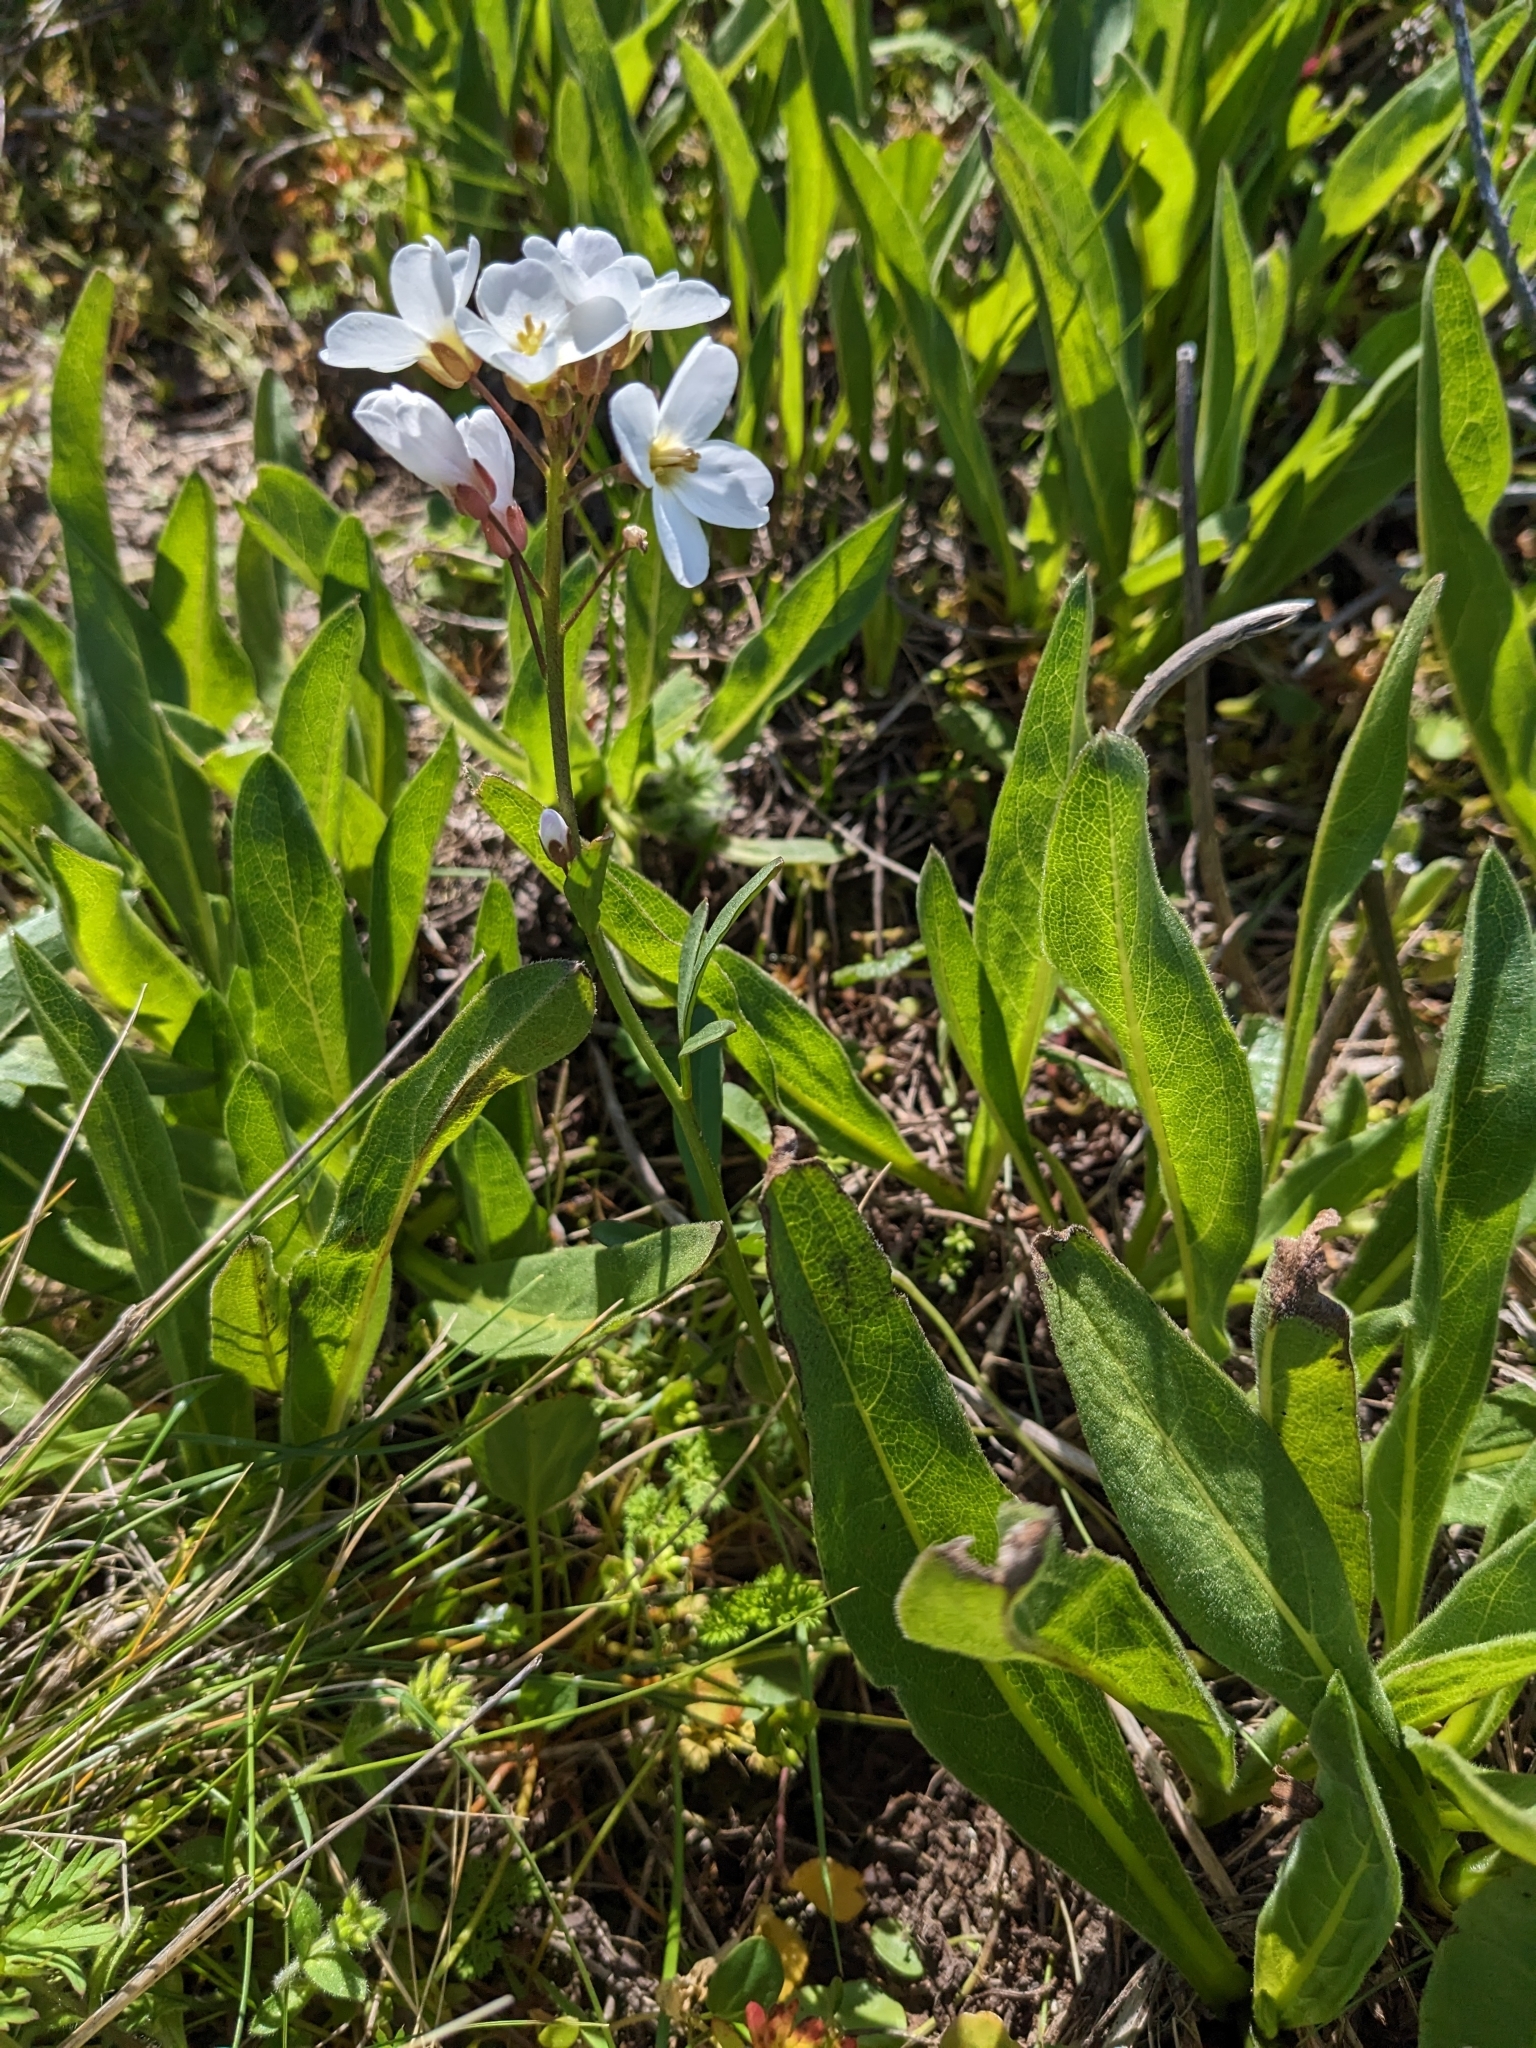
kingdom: Plantae
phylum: Tracheophyta
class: Magnoliopsida
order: Brassicales
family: Brassicaceae
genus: Cardamine
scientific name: Cardamine californica
